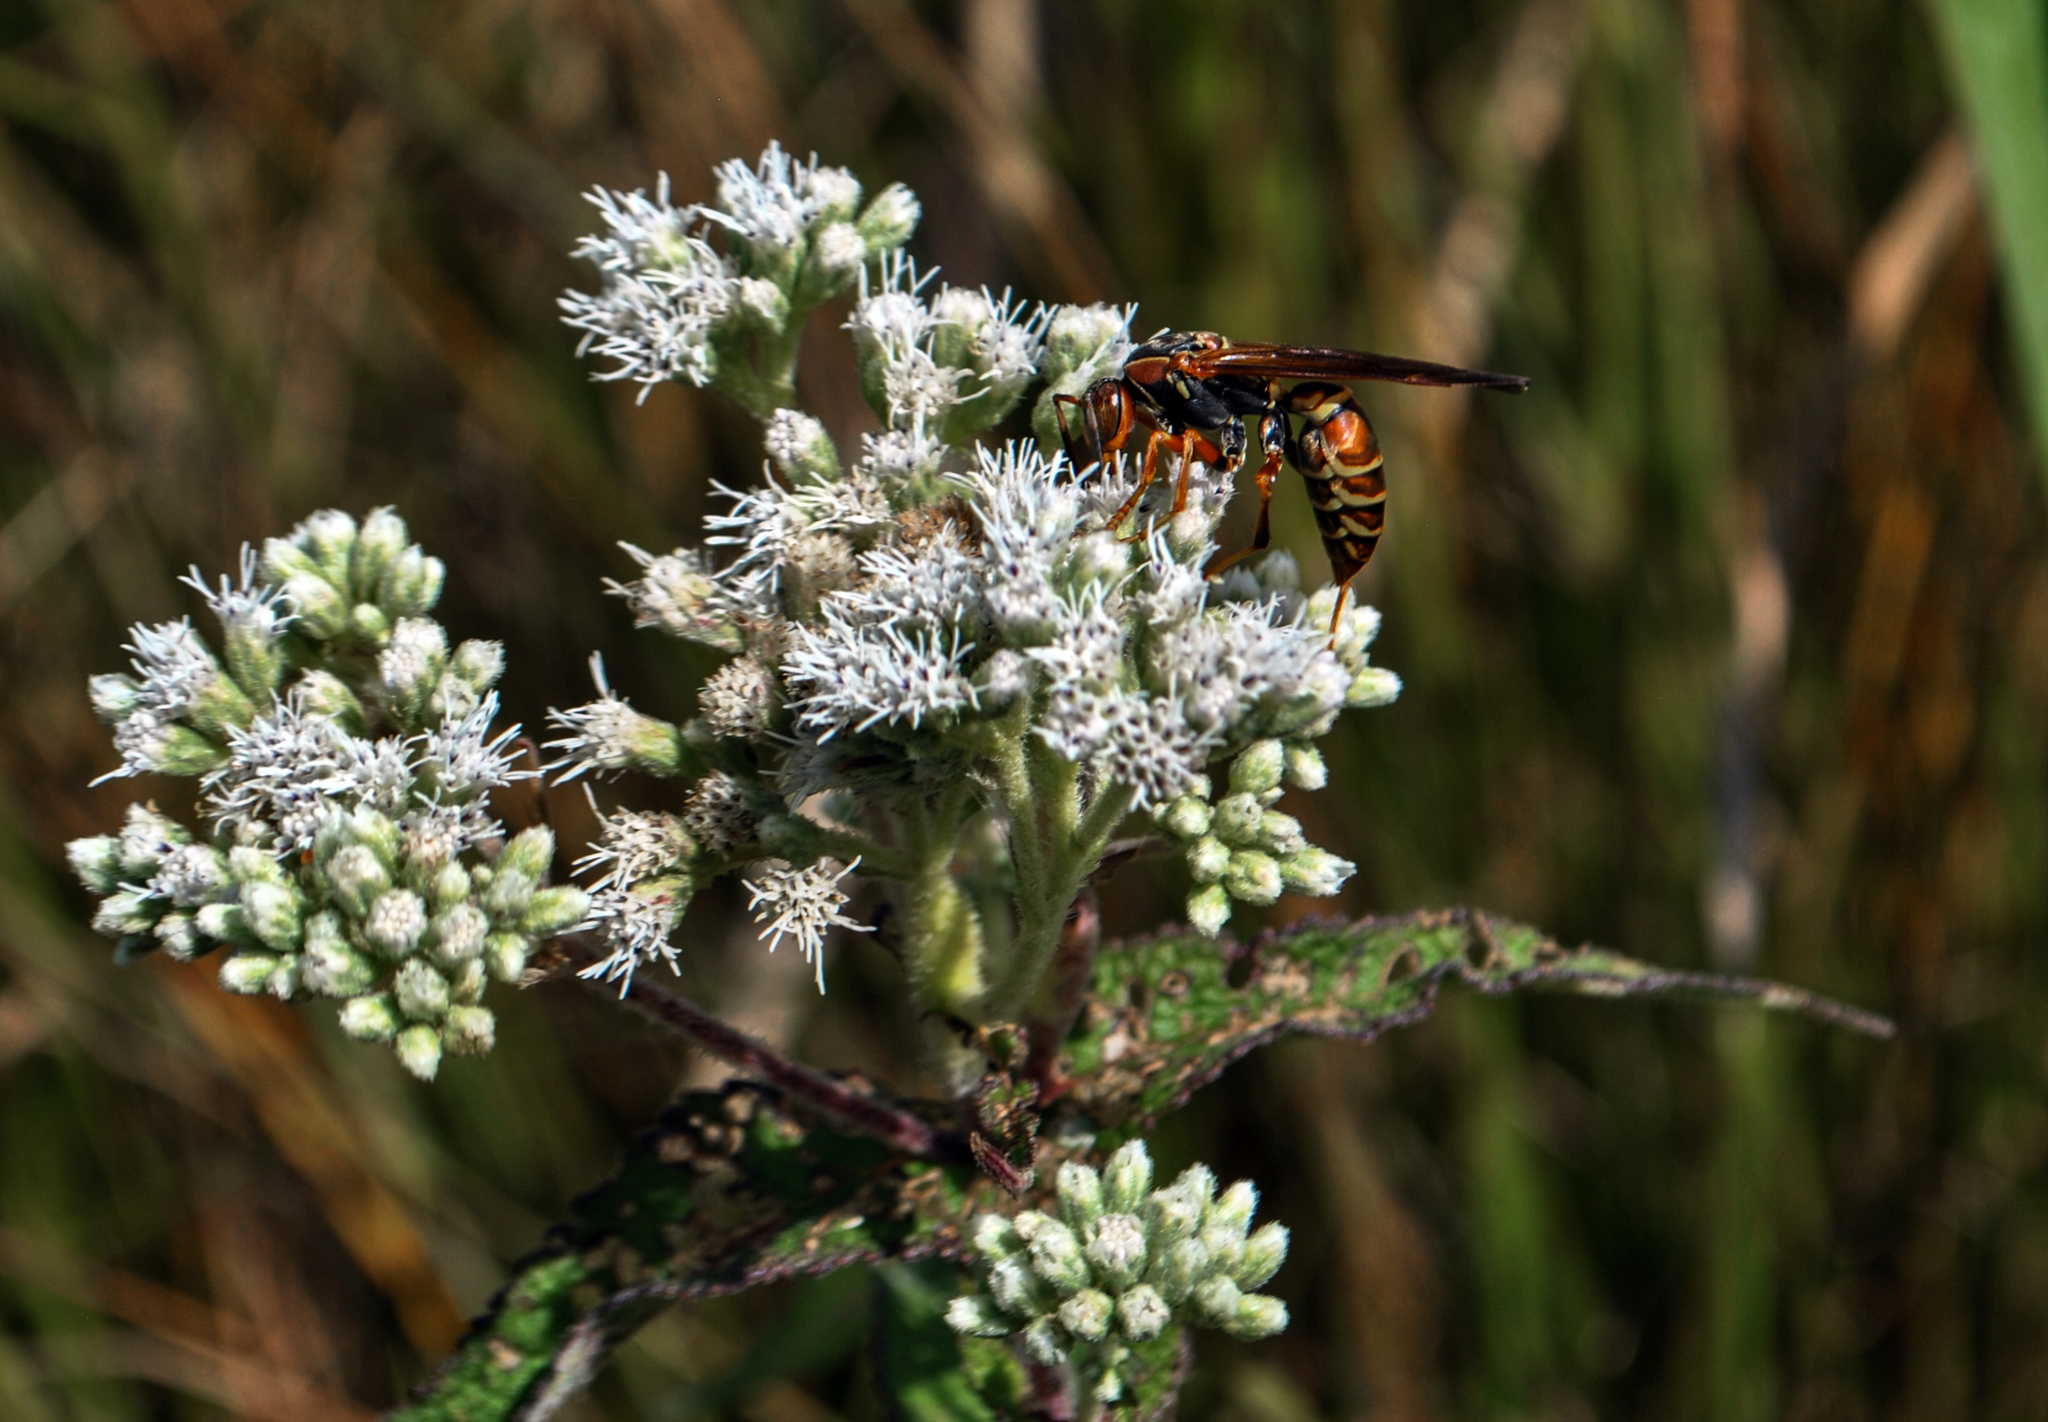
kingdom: Plantae
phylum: Tracheophyta
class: Magnoliopsida
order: Asterales
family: Asteraceae
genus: Eupatorium
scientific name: Eupatorium perfoliatum
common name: Boneset
